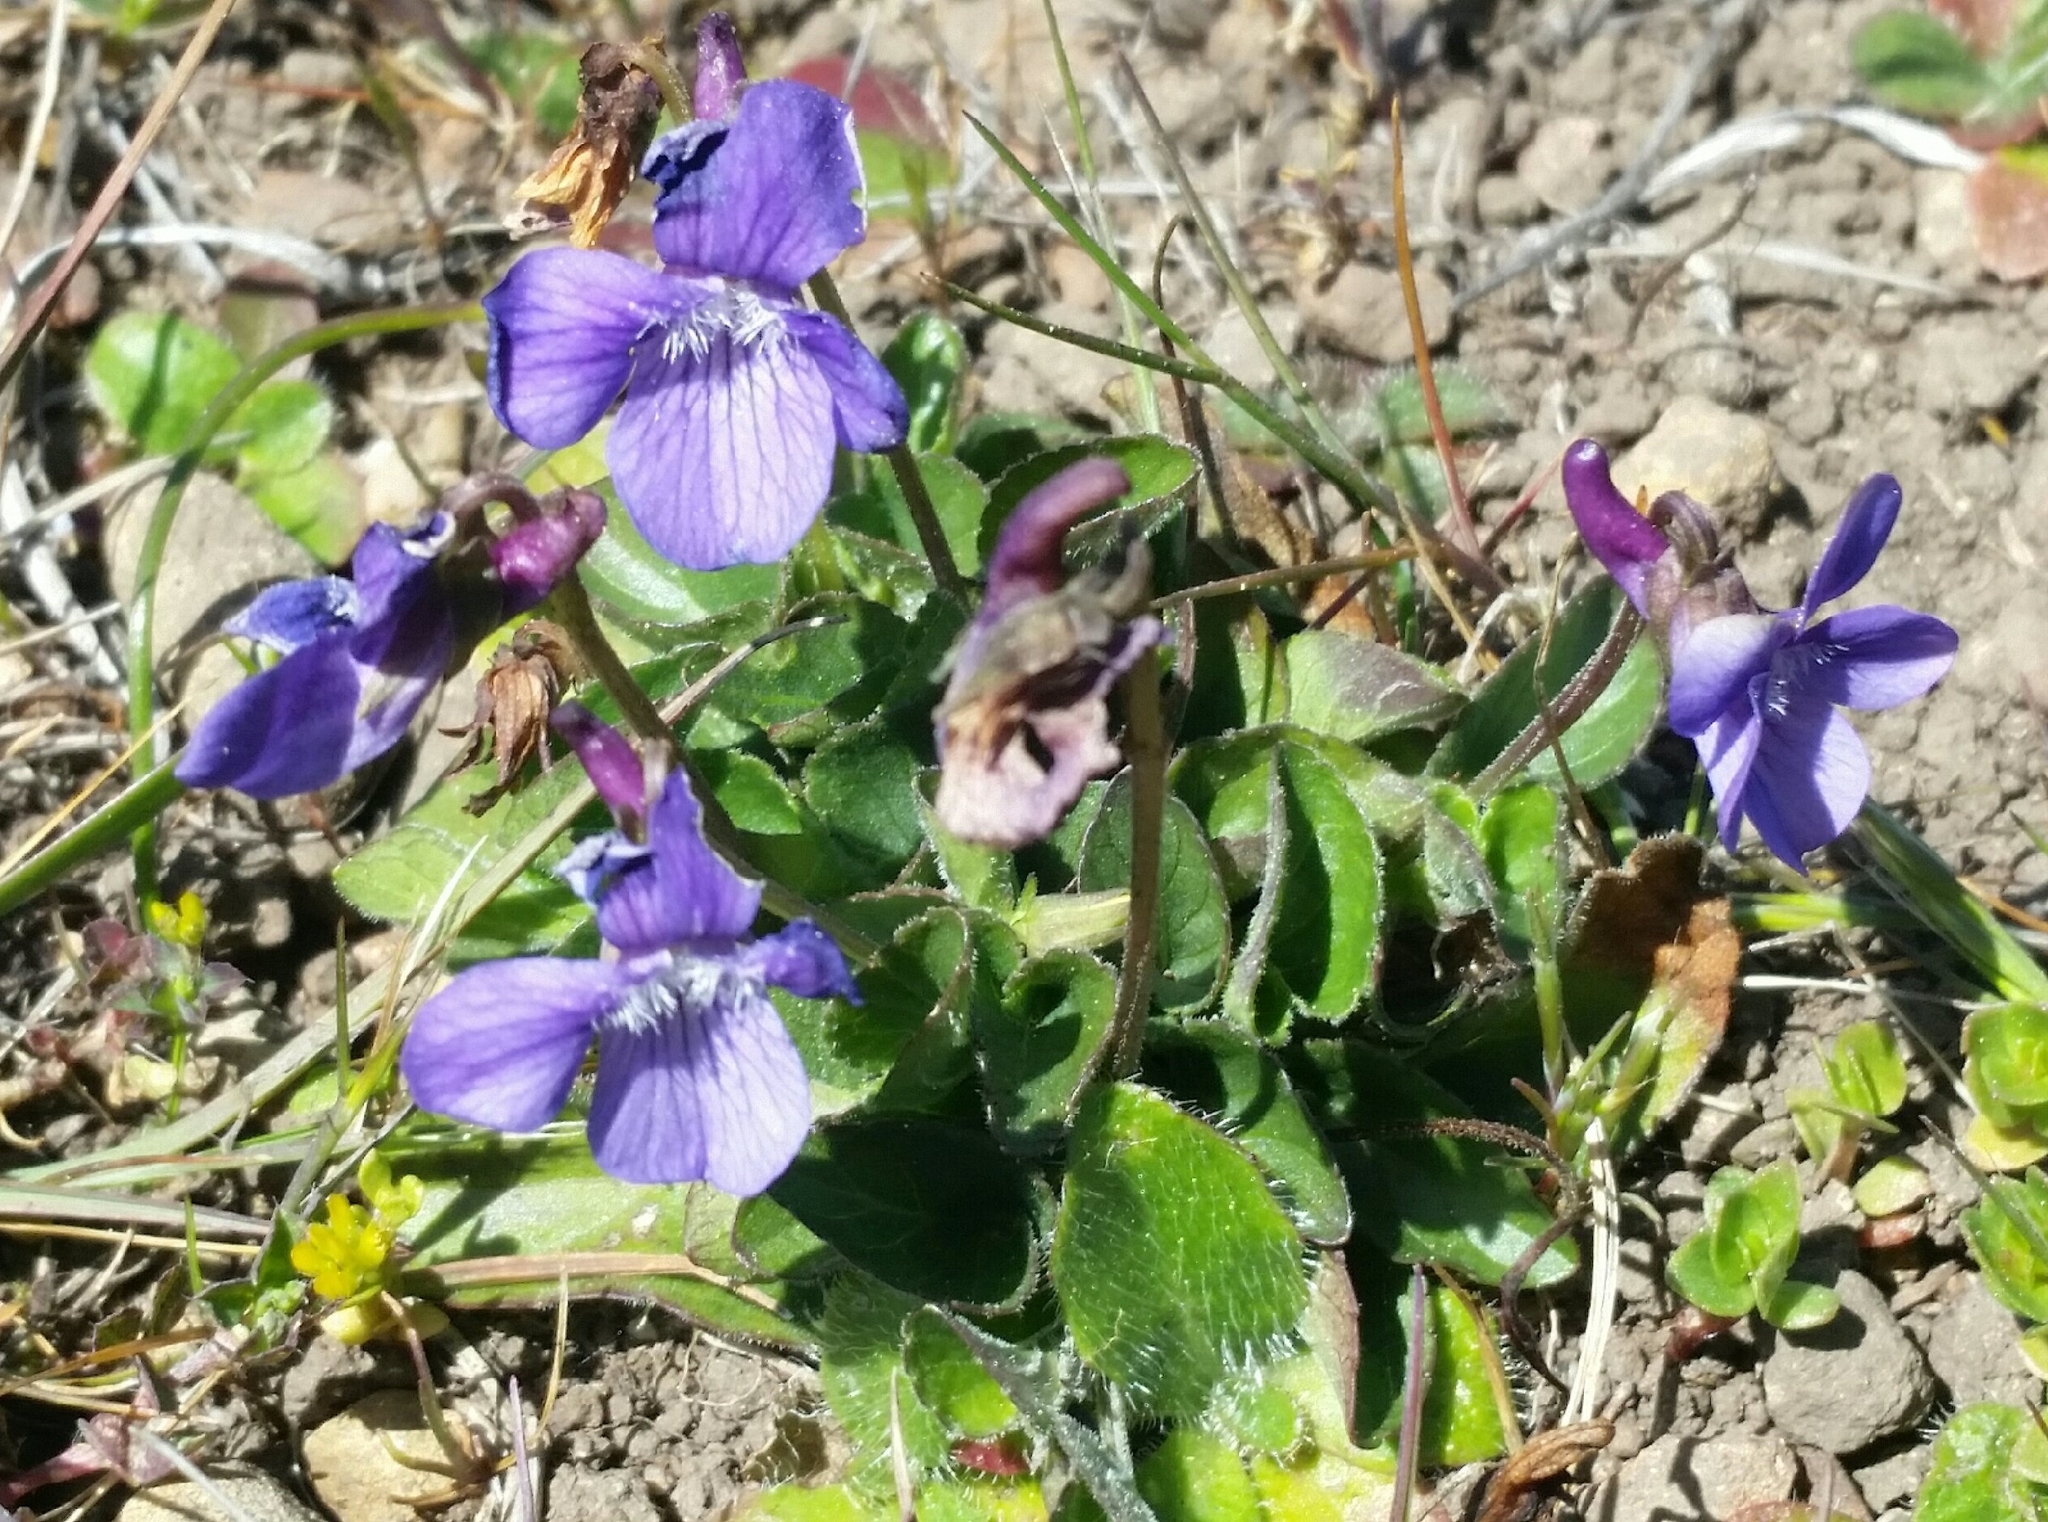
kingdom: Plantae
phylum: Tracheophyta
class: Magnoliopsida
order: Malpighiales
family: Violaceae
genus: Viola
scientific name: Viola adunca
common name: Sand violet
